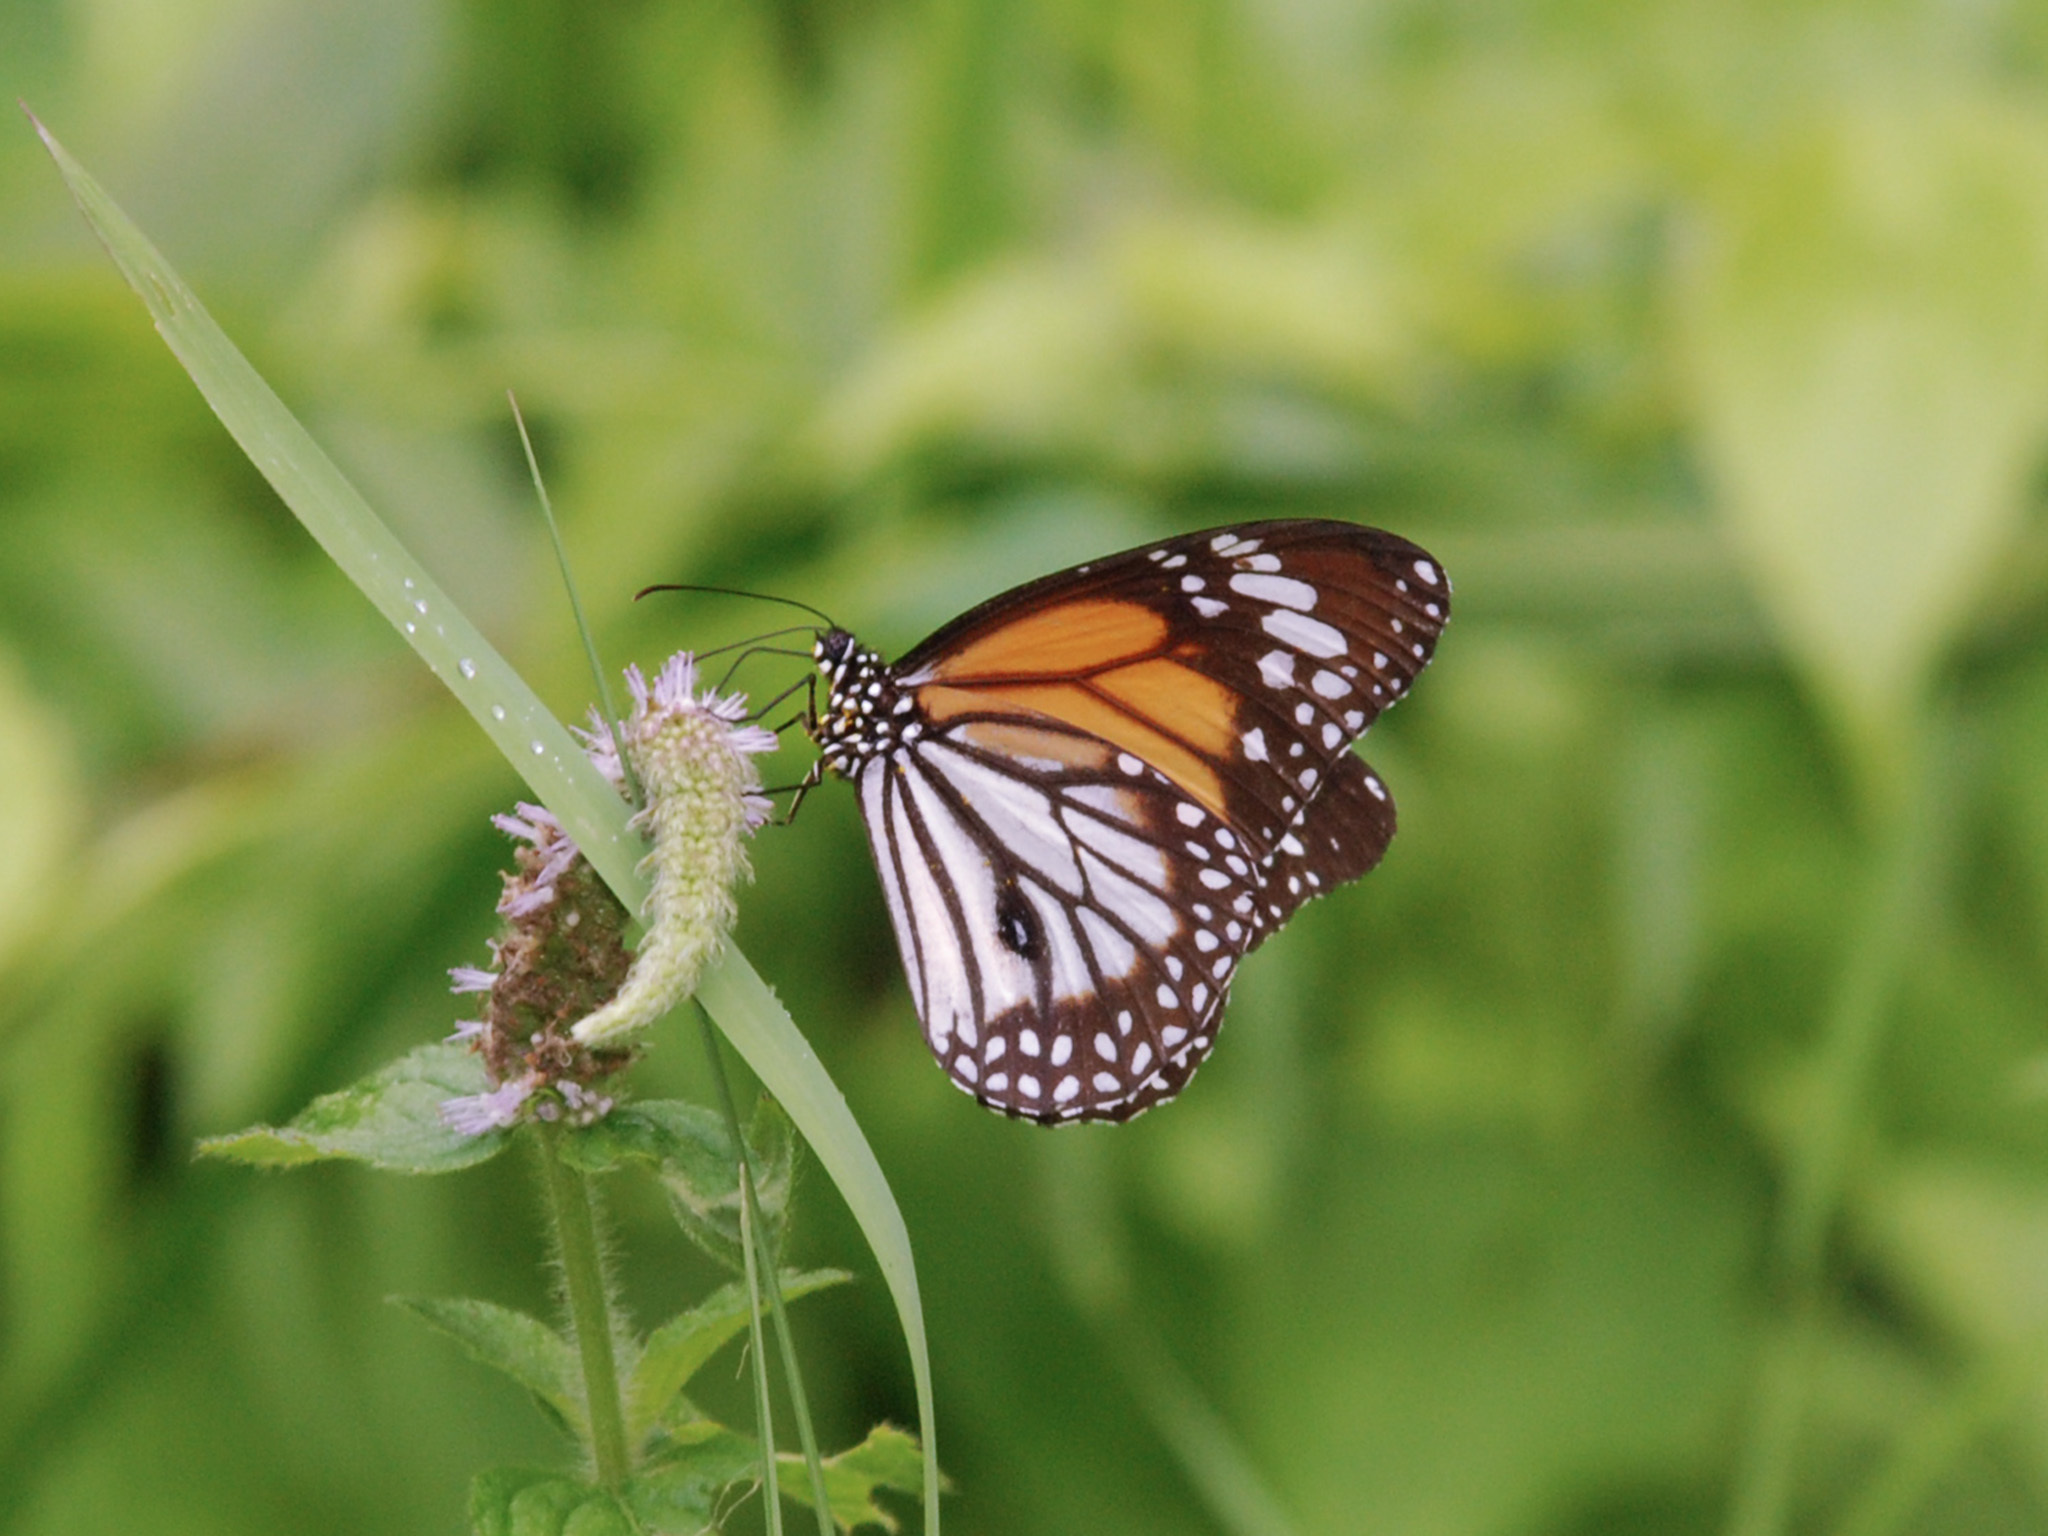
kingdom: Animalia
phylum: Arthropoda
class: Insecta
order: Lepidoptera
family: Nymphalidae
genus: Danaus
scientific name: Danaus melanippus
